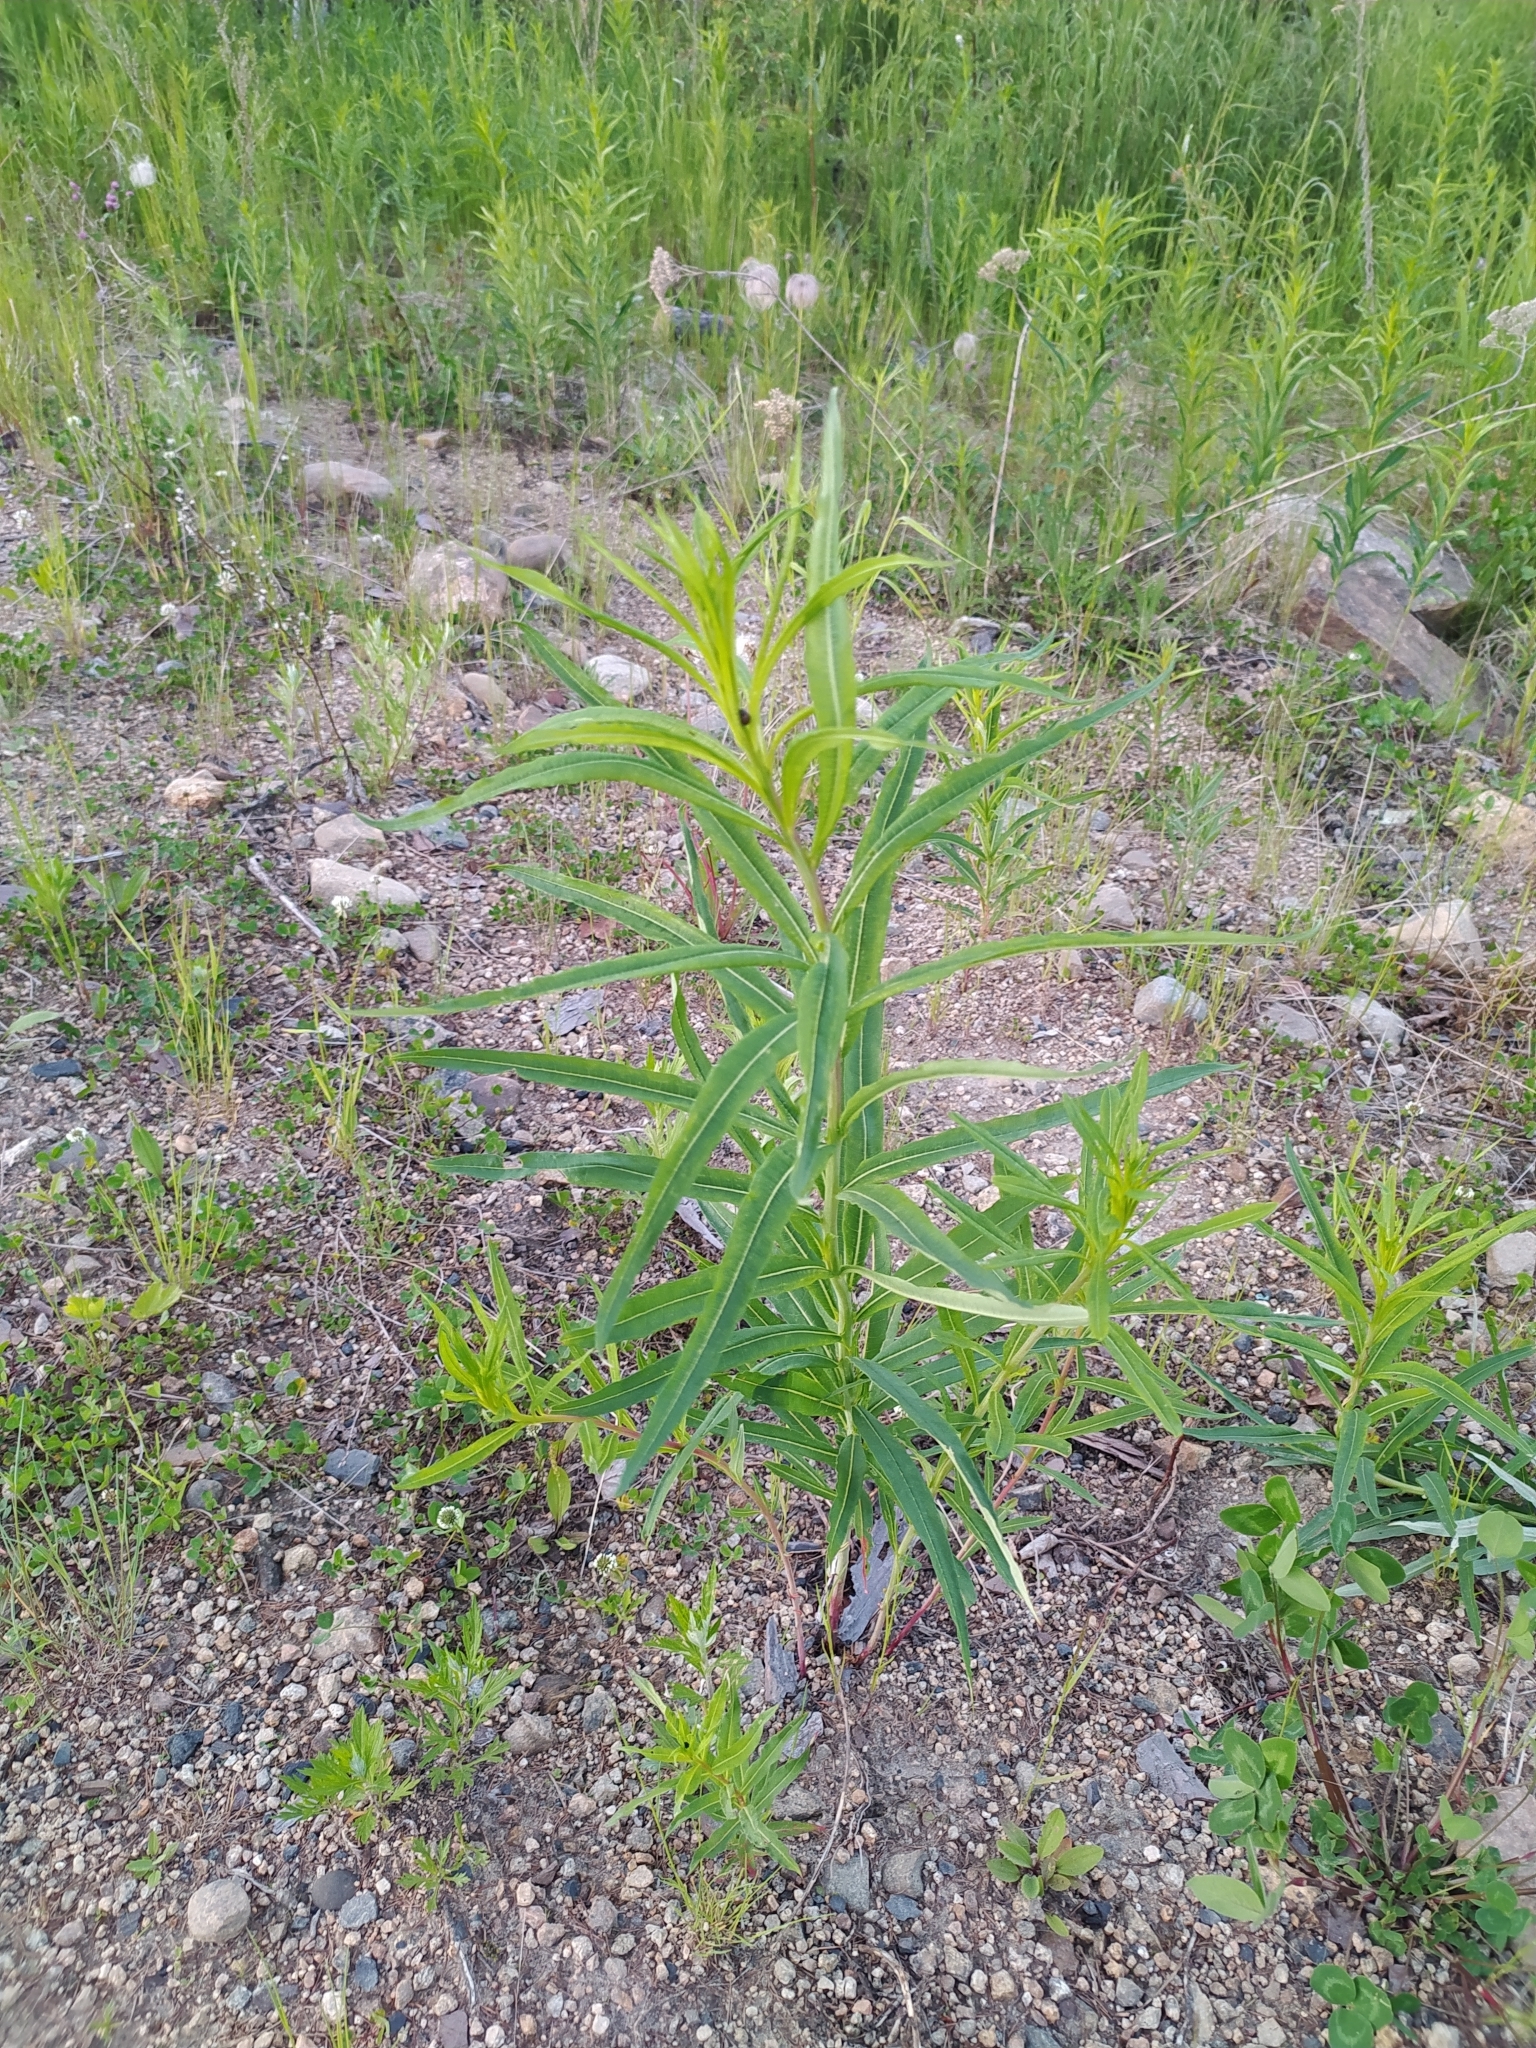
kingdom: Plantae
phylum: Tracheophyta
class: Magnoliopsida
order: Myrtales
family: Onagraceae
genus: Chamaenerion
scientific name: Chamaenerion angustifolium
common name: Fireweed
